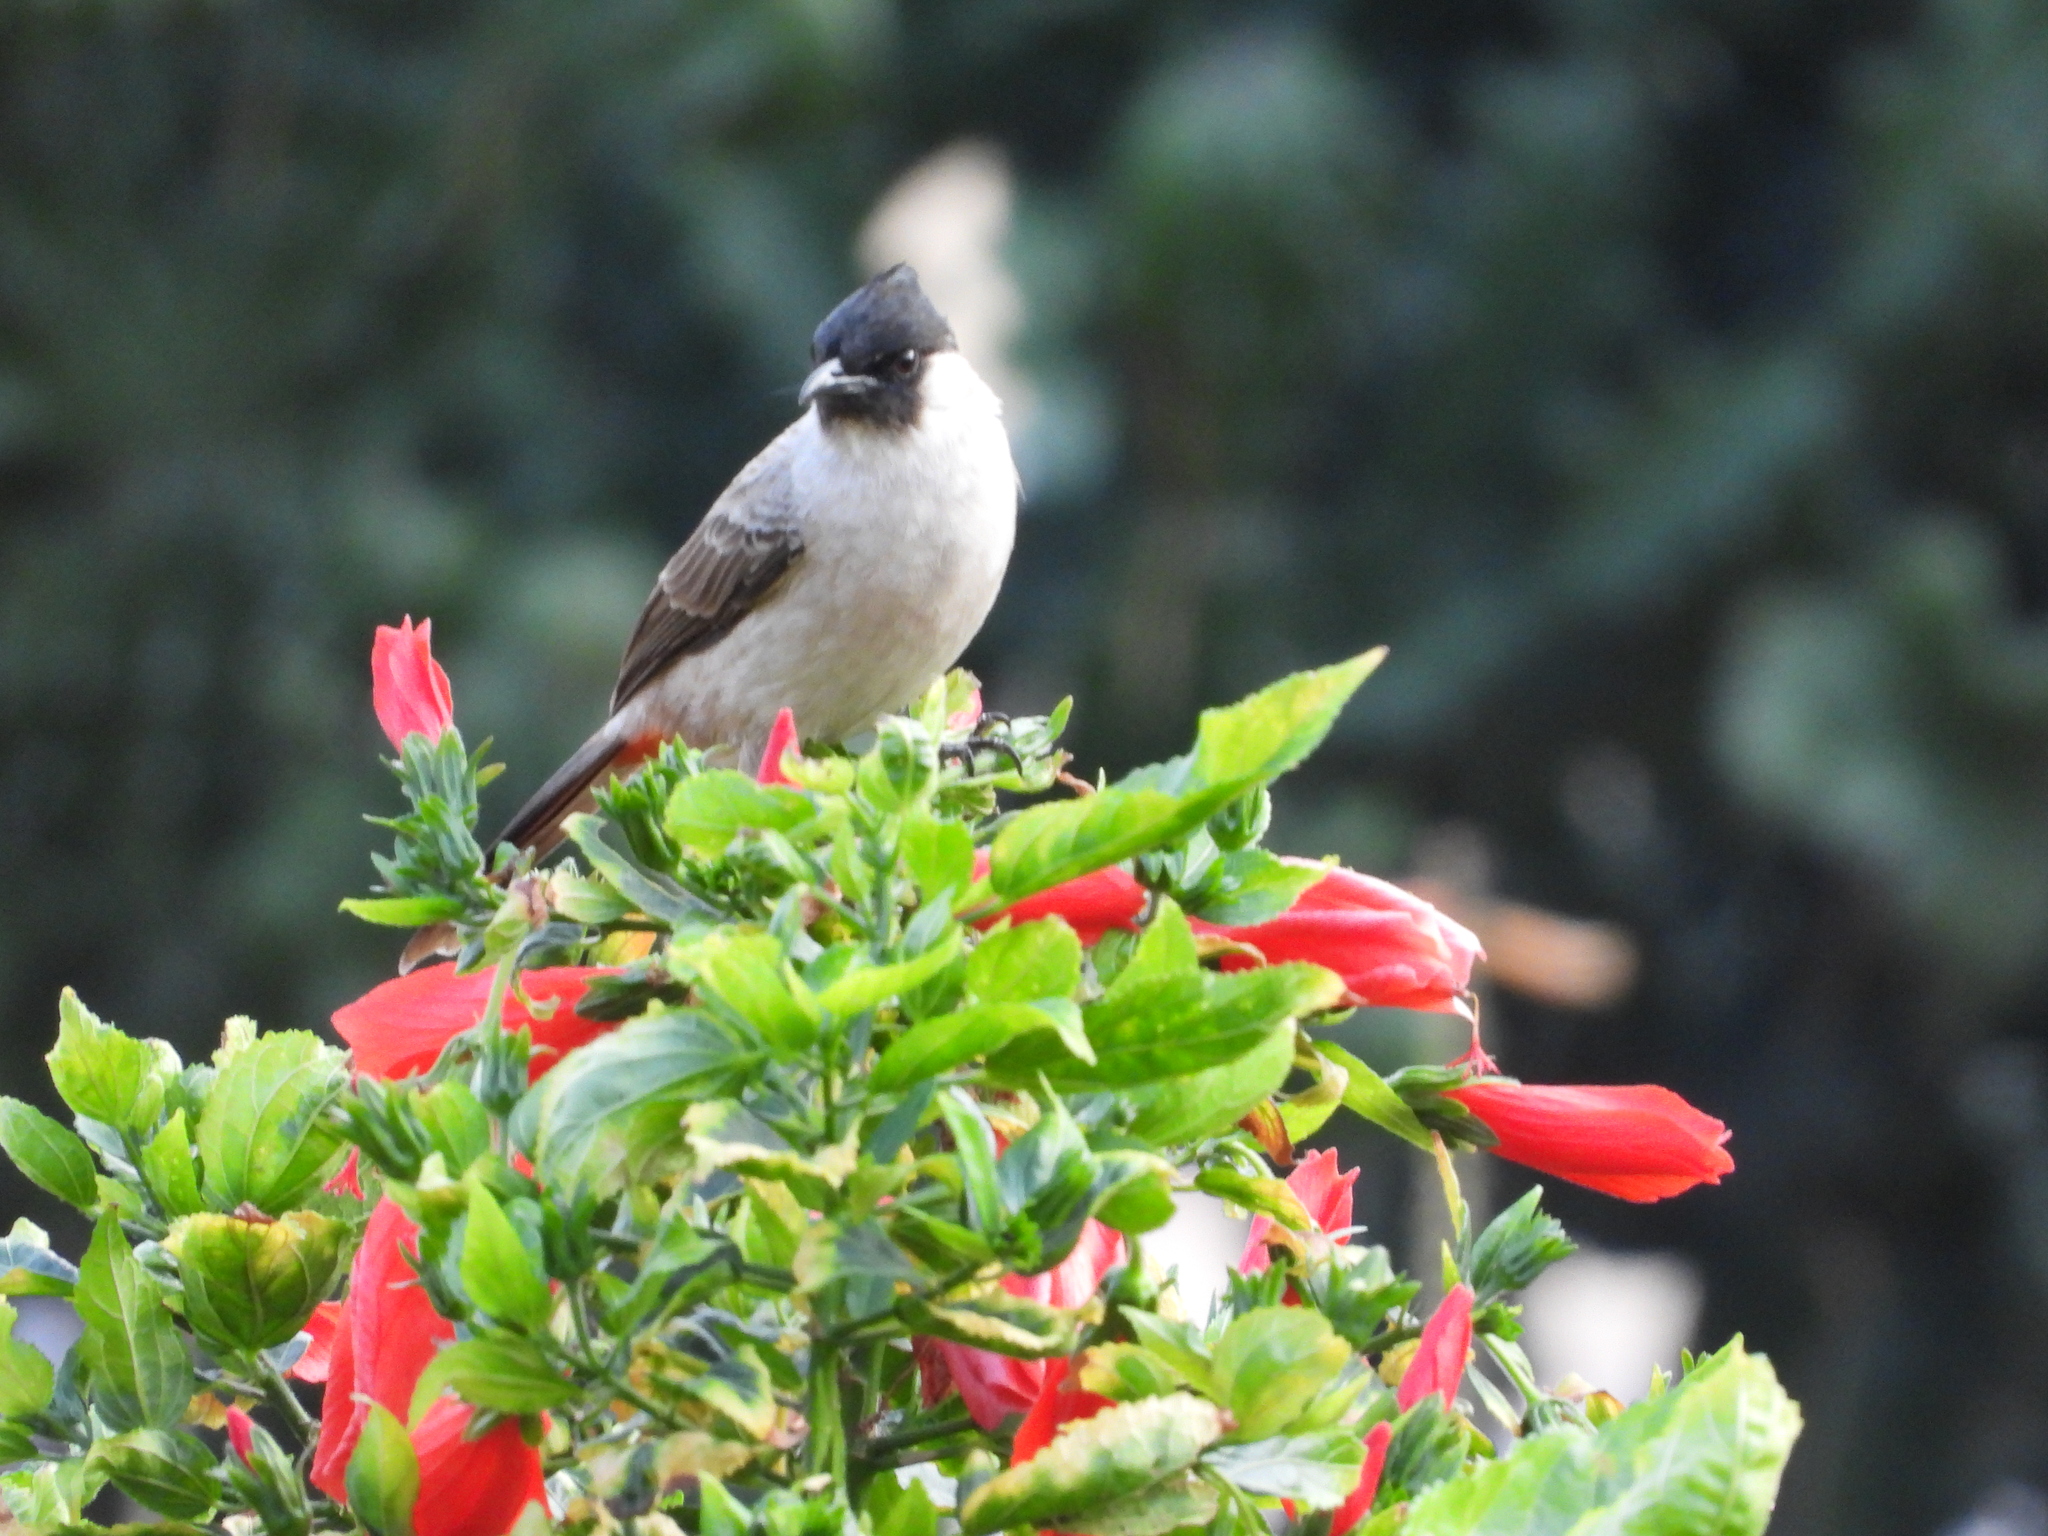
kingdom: Animalia
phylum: Chordata
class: Aves
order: Passeriformes
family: Pycnonotidae
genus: Pycnonotus
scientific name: Pycnonotus aurigaster
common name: Sooty-headed bulbul
